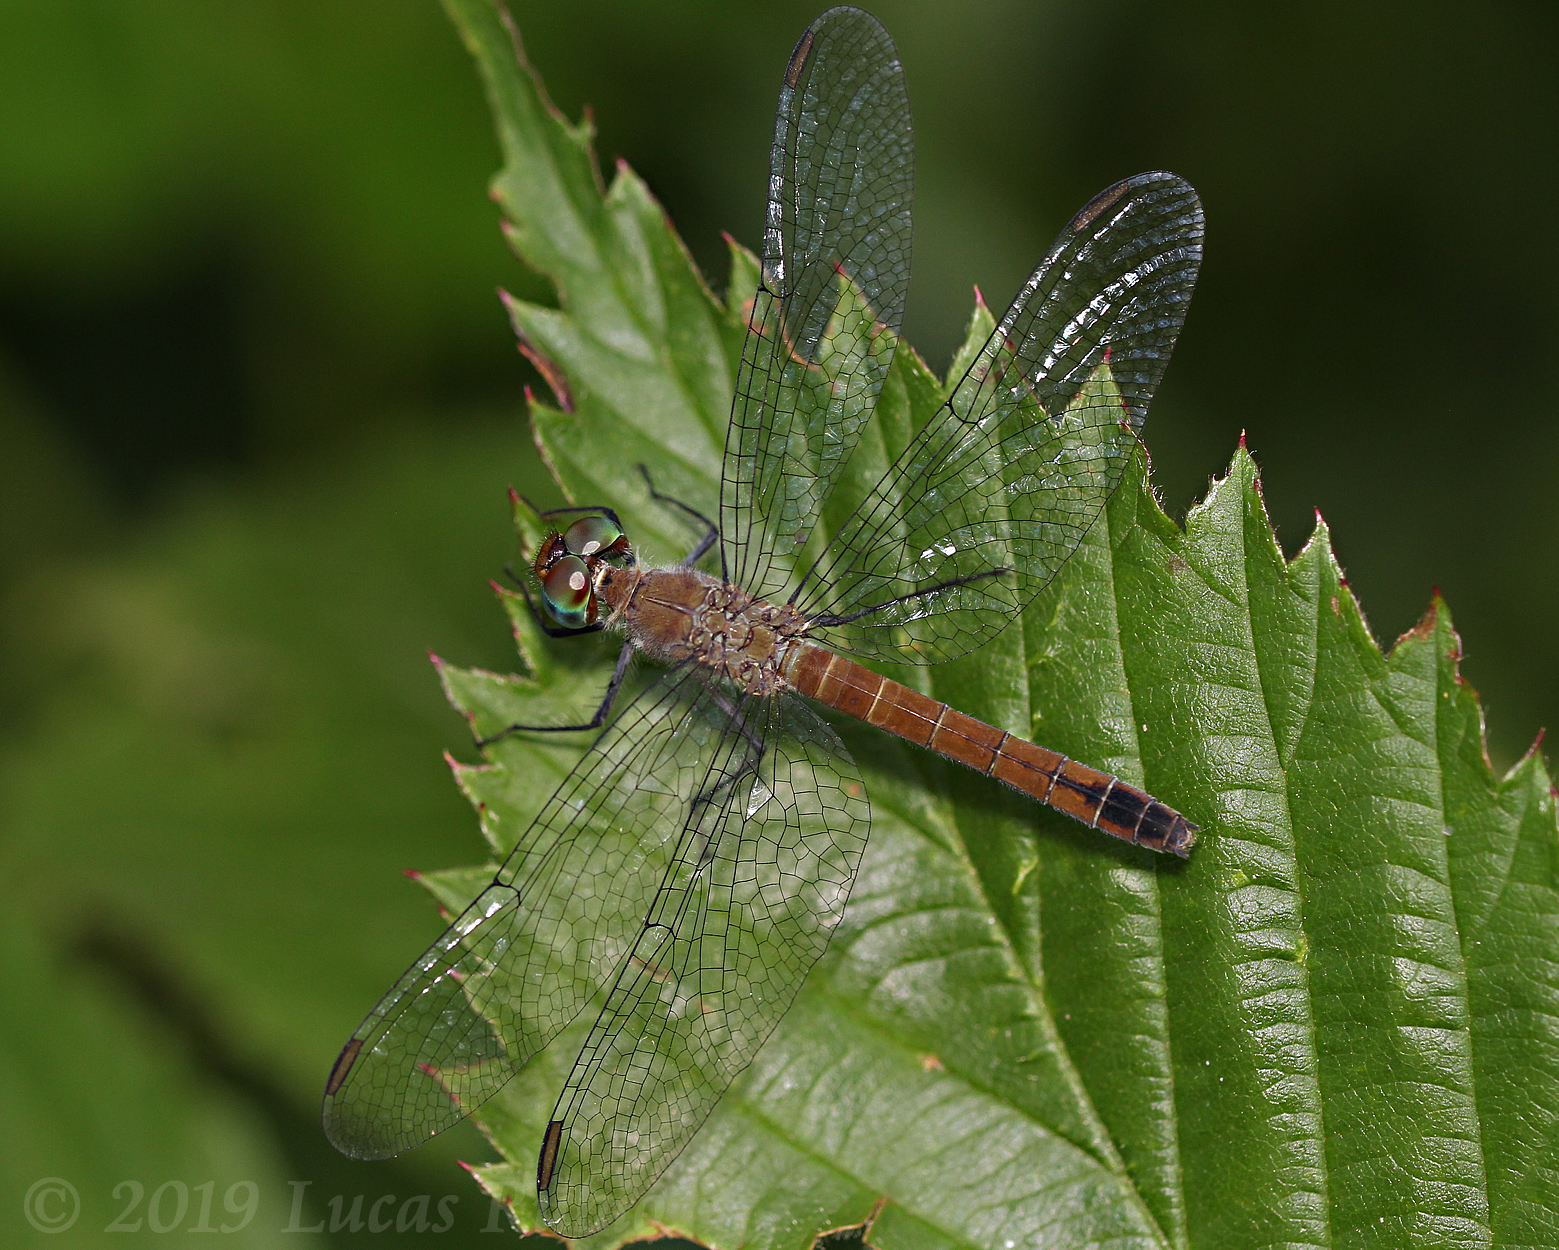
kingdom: Animalia
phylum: Arthropoda
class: Insecta
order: Odonata
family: Libellulidae
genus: Oligoclada
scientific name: Oligoclada laetitia
